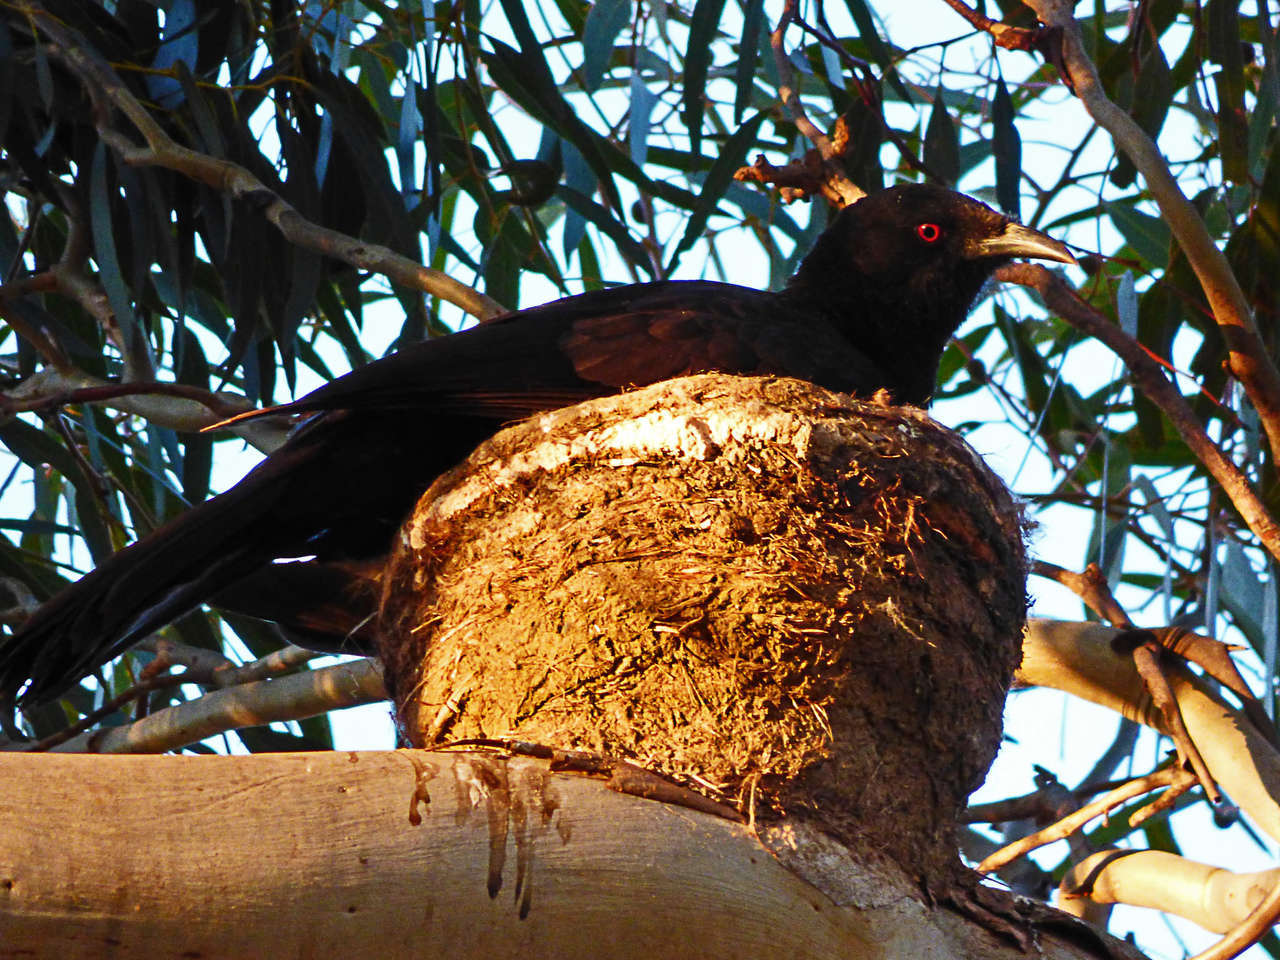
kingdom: Animalia
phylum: Chordata
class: Aves
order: Passeriformes
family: Corcoracidae
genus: Corcorax
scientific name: Corcorax melanoramphos
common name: White-winged chough
